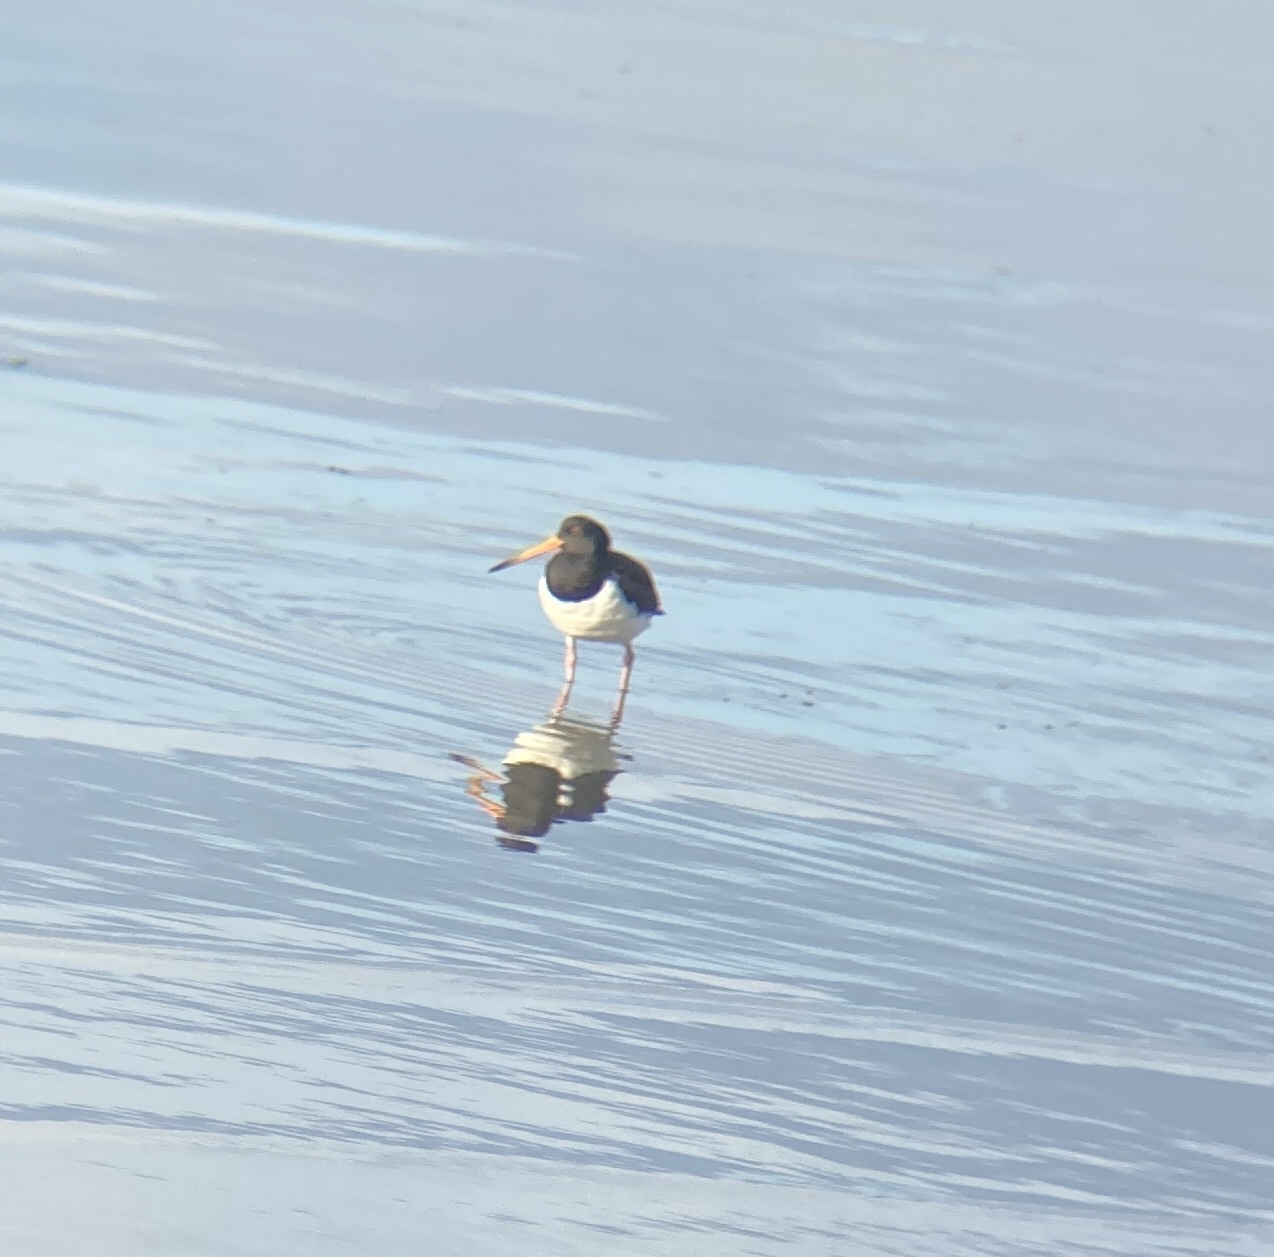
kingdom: Animalia
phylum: Chordata
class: Aves
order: Charadriiformes
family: Haematopodidae
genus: Haematopus
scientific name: Haematopus finschi
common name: South island oystercatcher
